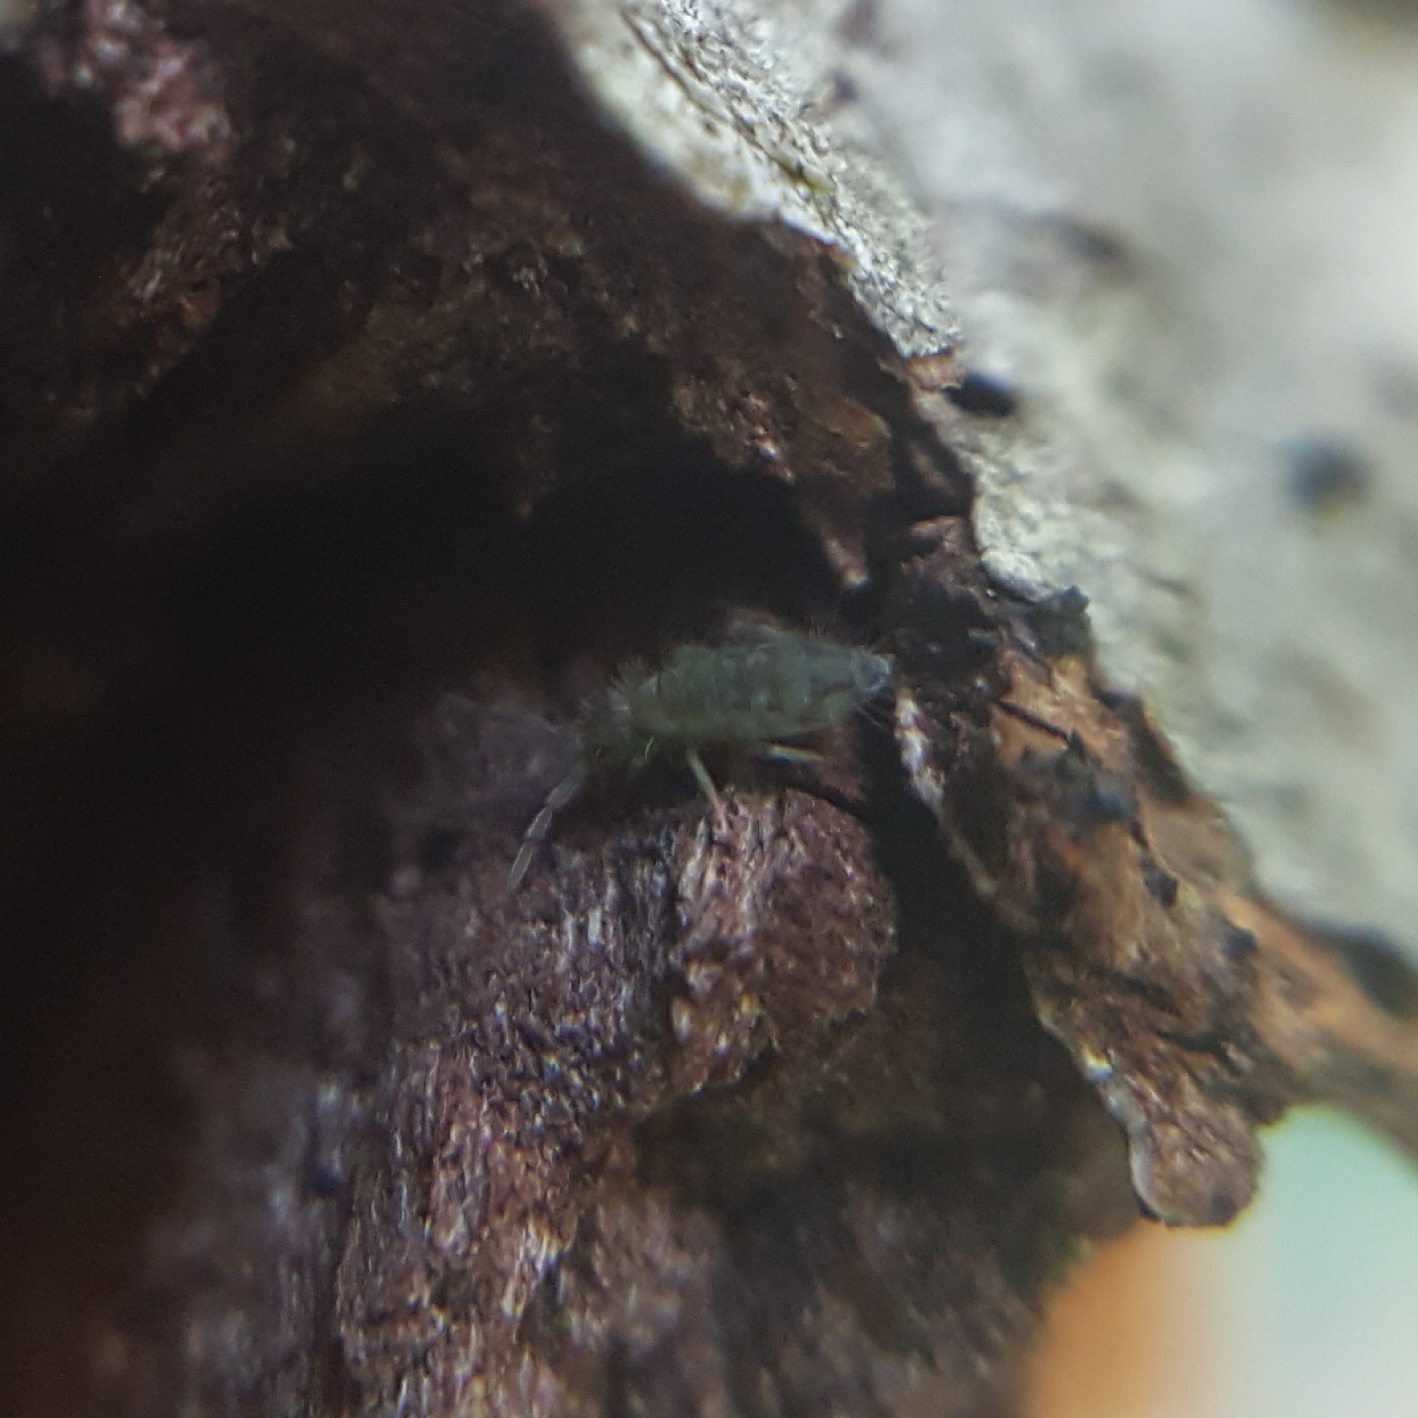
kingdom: Animalia
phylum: Arthropoda
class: Collembola
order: Entomobryomorpha
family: Entomobryidae
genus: Entomobrya
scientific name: Entomobrya nivalis
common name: Cosmopolitan springtail
